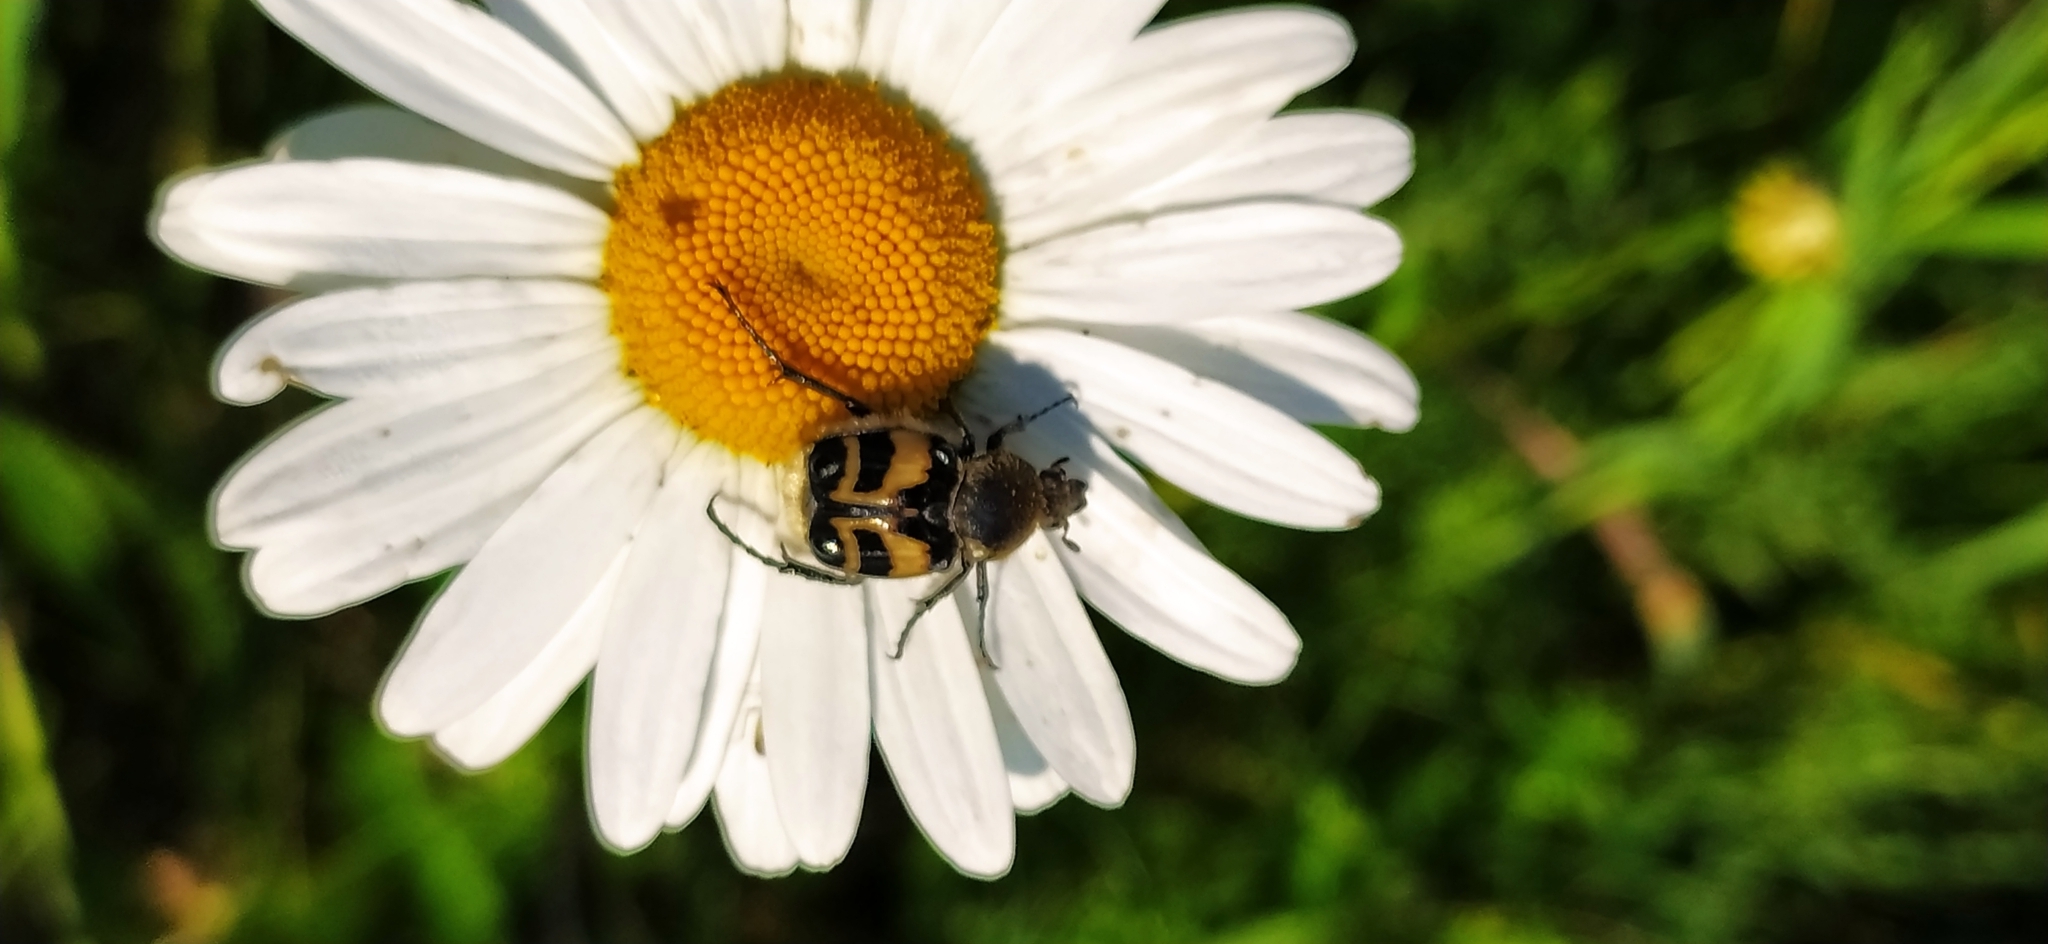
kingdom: Animalia
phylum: Arthropoda
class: Insecta
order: Coleoptera
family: Scarabaeidae
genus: Trichius
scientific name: Trichius fasciatus
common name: Bee beetle
